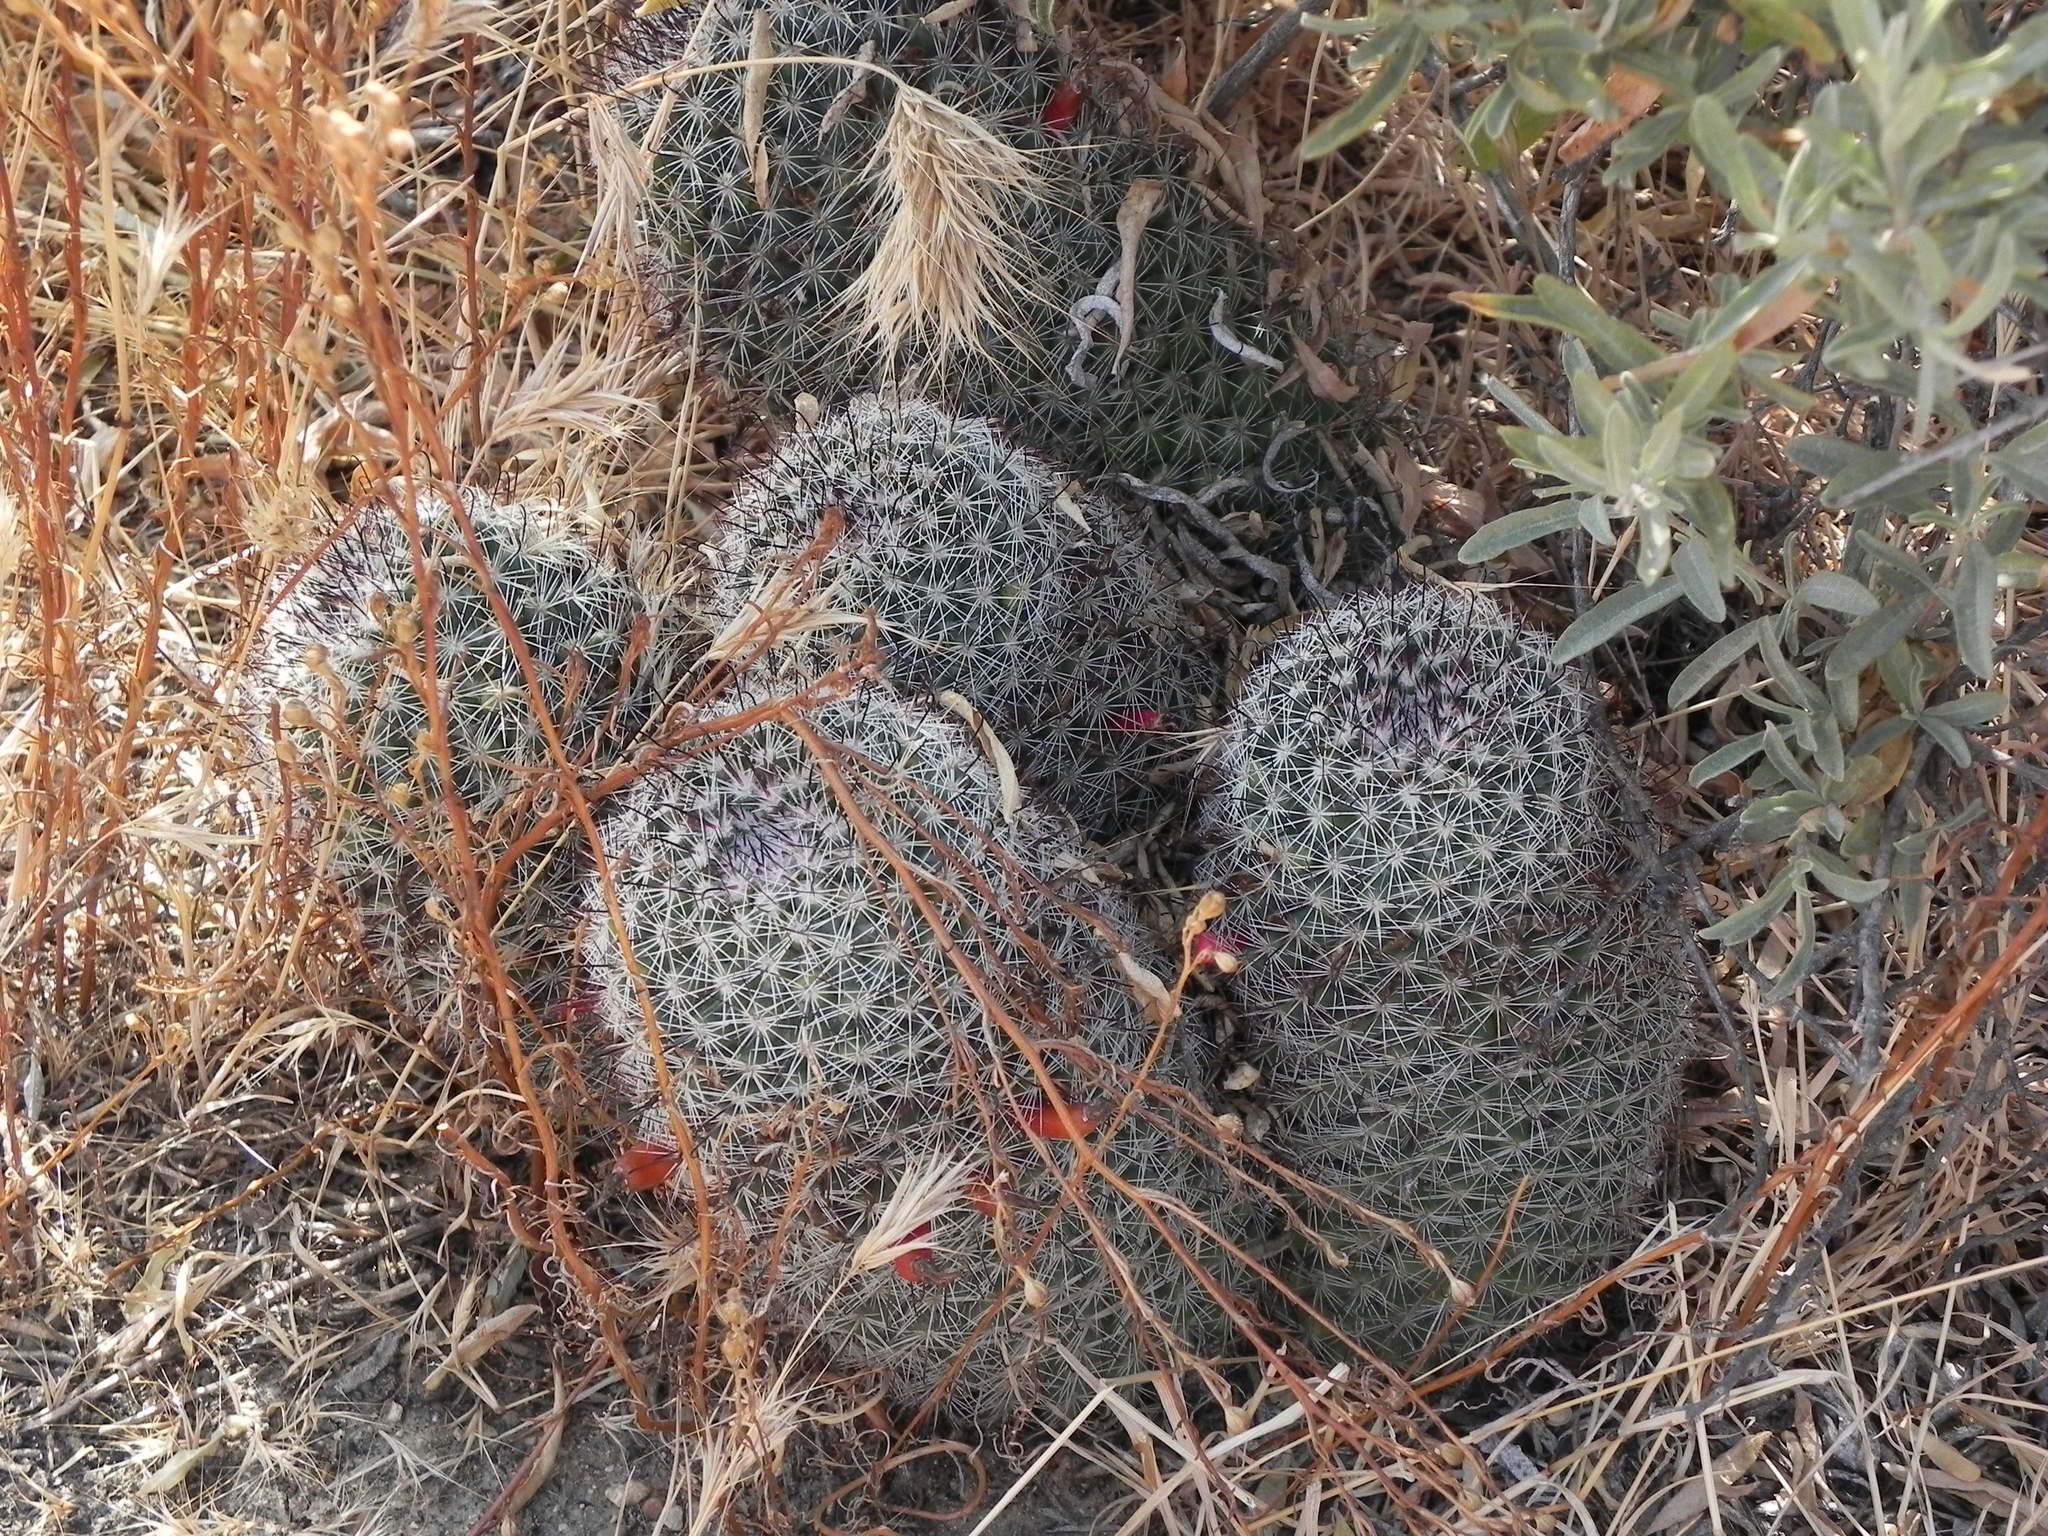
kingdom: Plantae
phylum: Tracheophyta
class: Magnoliopsida
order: Caryophyllales
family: Cactaceae
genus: Cochemiea
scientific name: Cochemiea dioica
